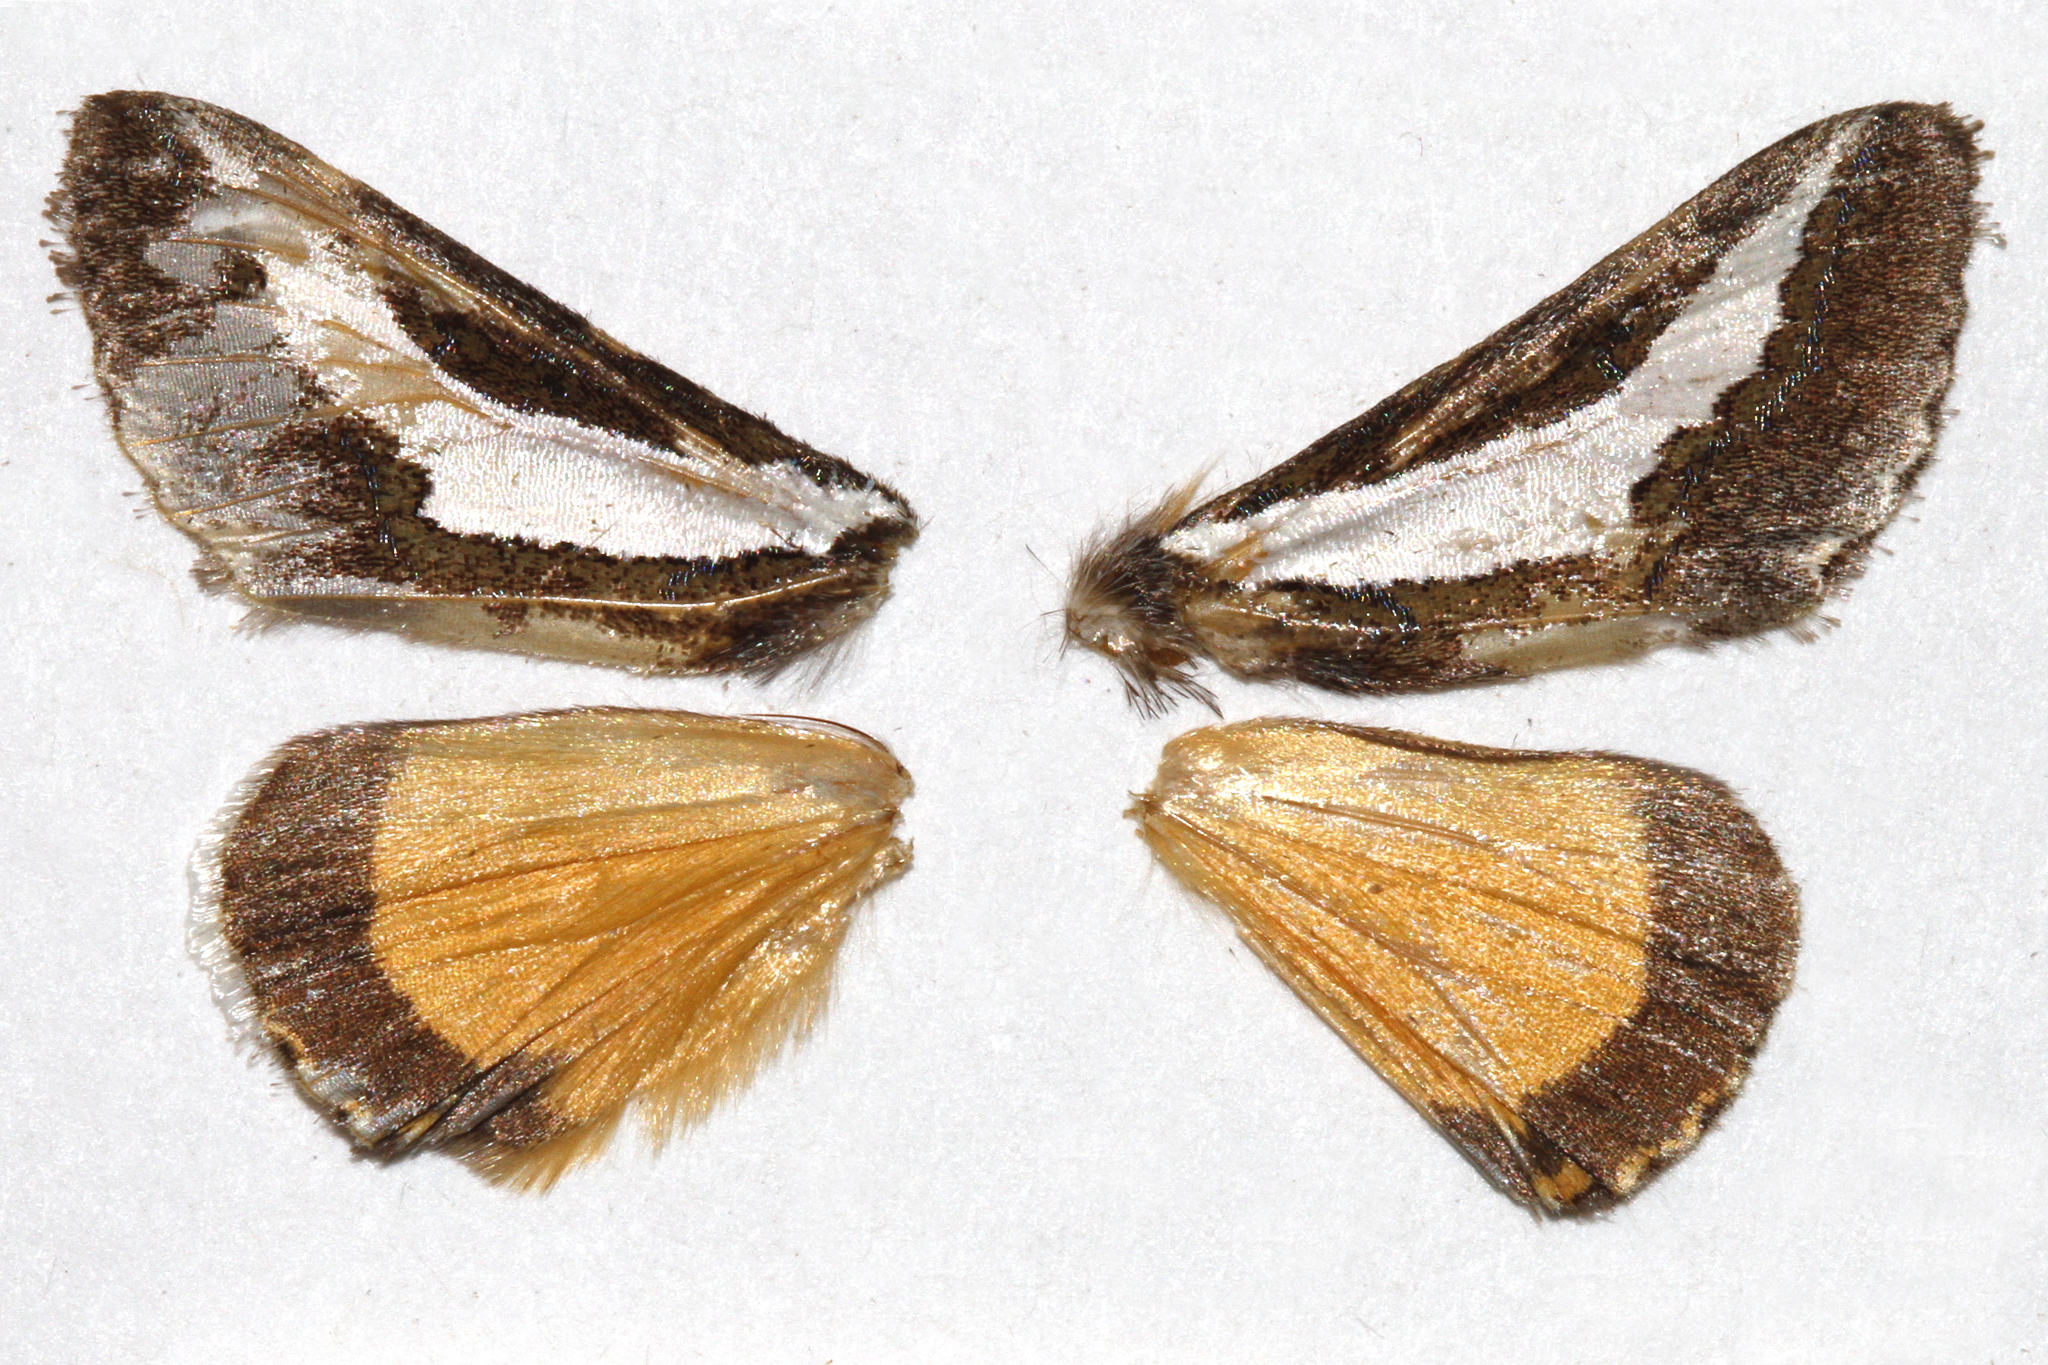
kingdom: Animalia
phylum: Arthropoda
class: Insecta
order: Lepidoptera
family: Noctuidae
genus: Euscirrhopterus
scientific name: Euscirrhopterus cosyra
